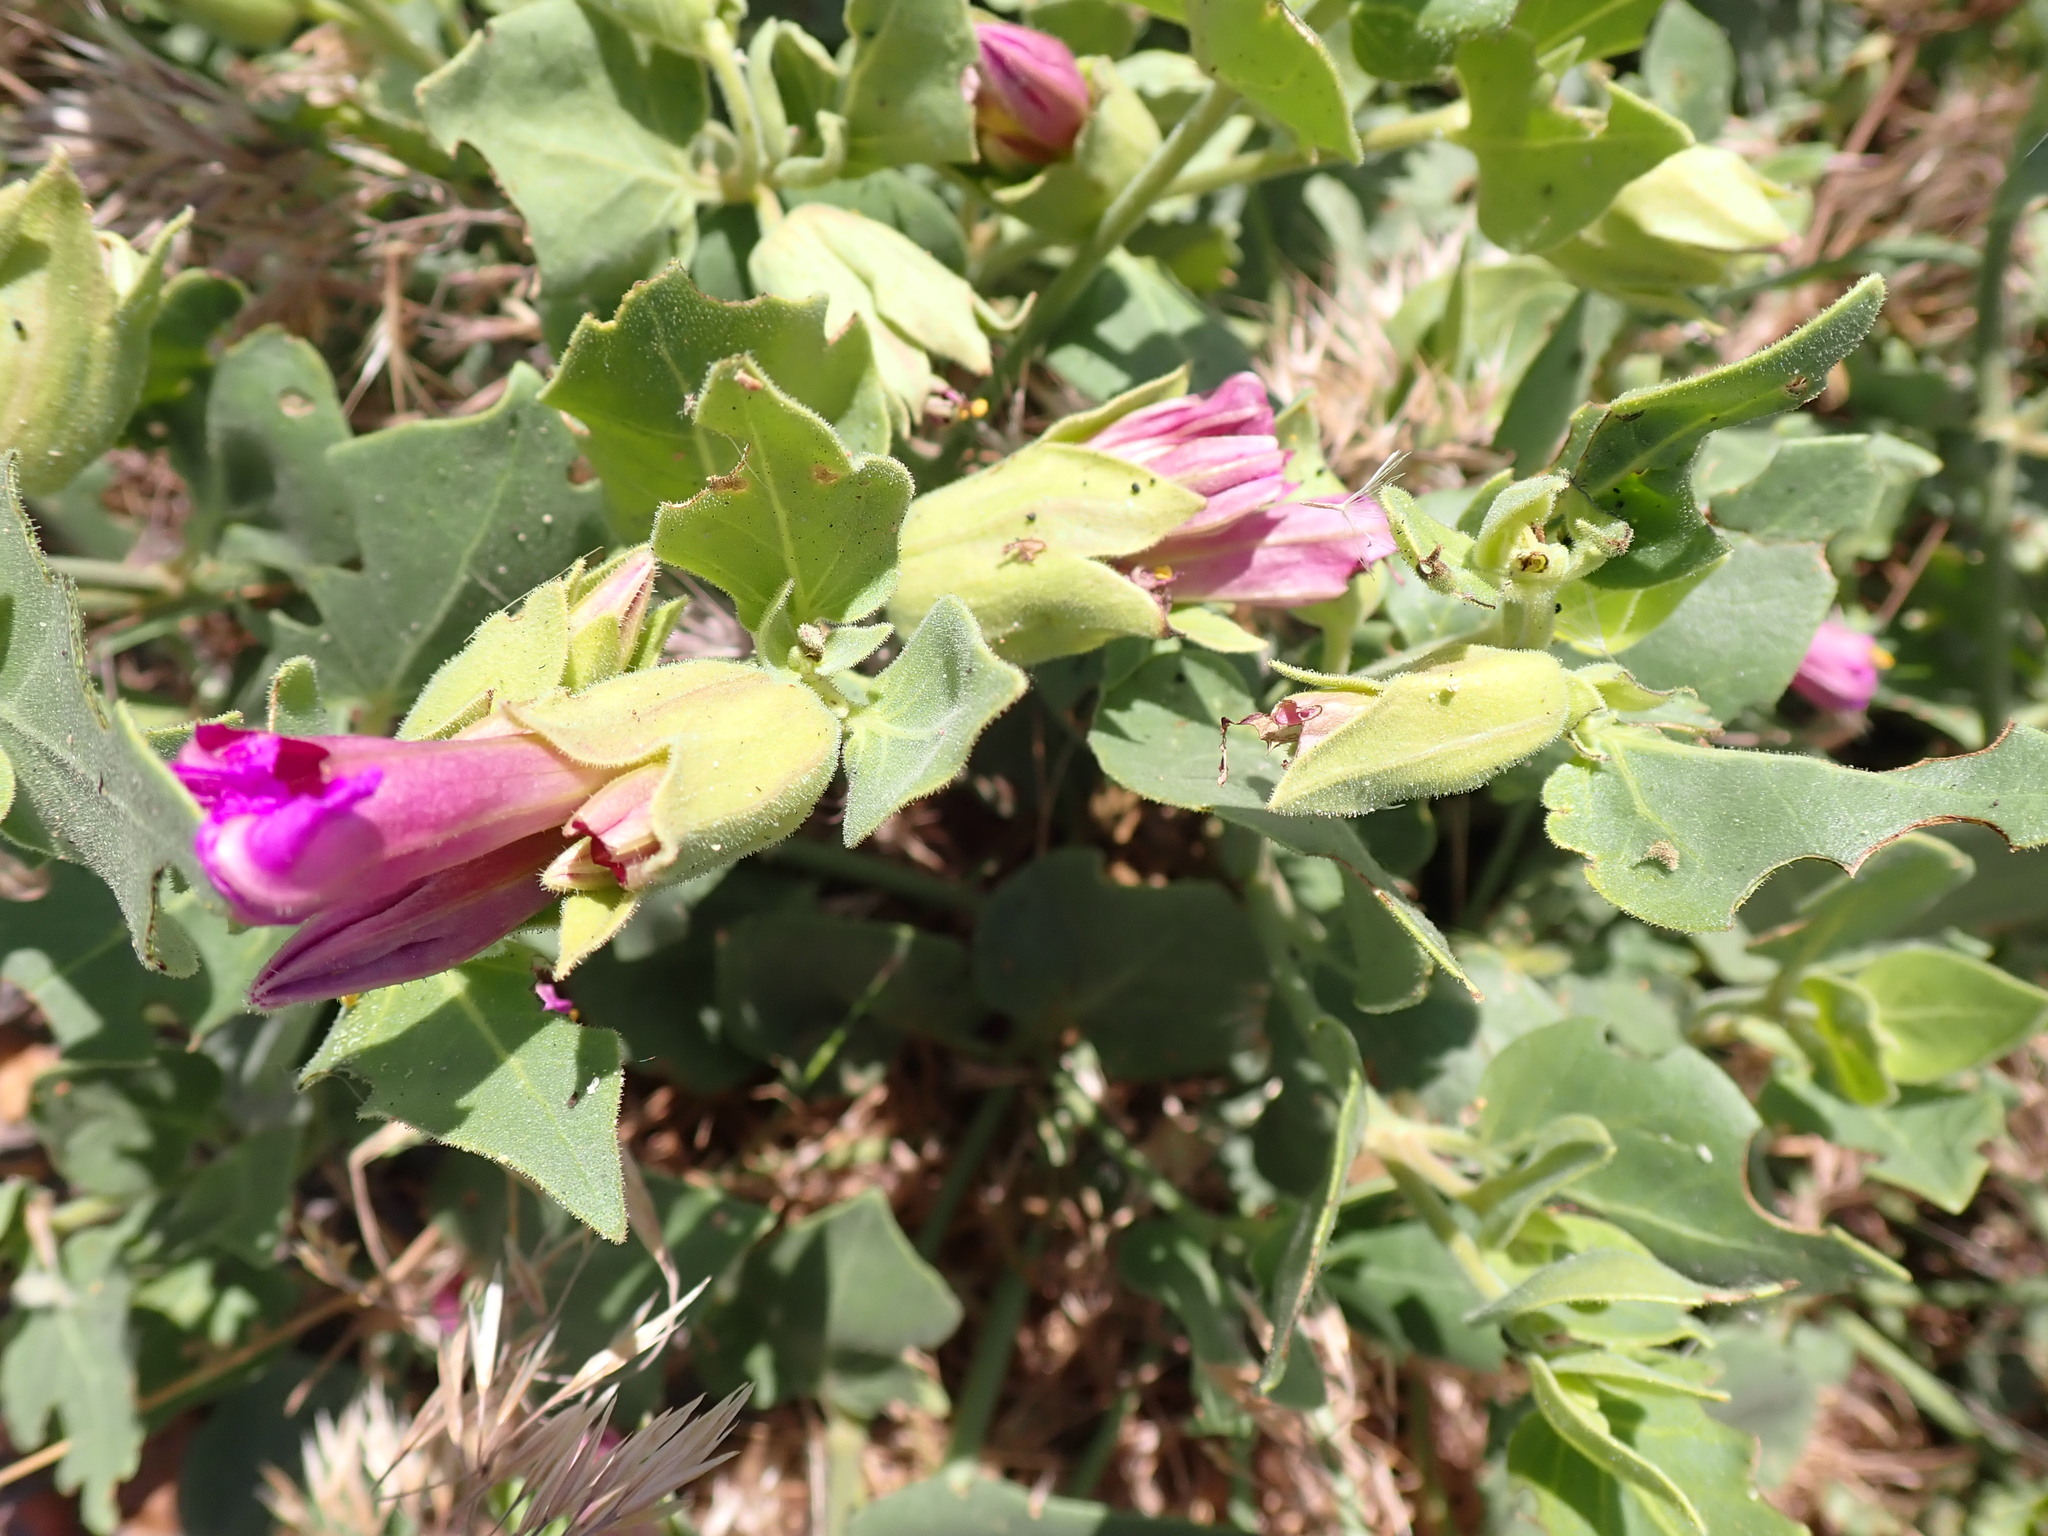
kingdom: Plantae
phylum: Tracheophyta
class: Magnoliopsida
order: Caryophyllales
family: Nyctaginaceae
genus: Mirabilis
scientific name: Mirabilis multiflora
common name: Froebel's four-o'clock
